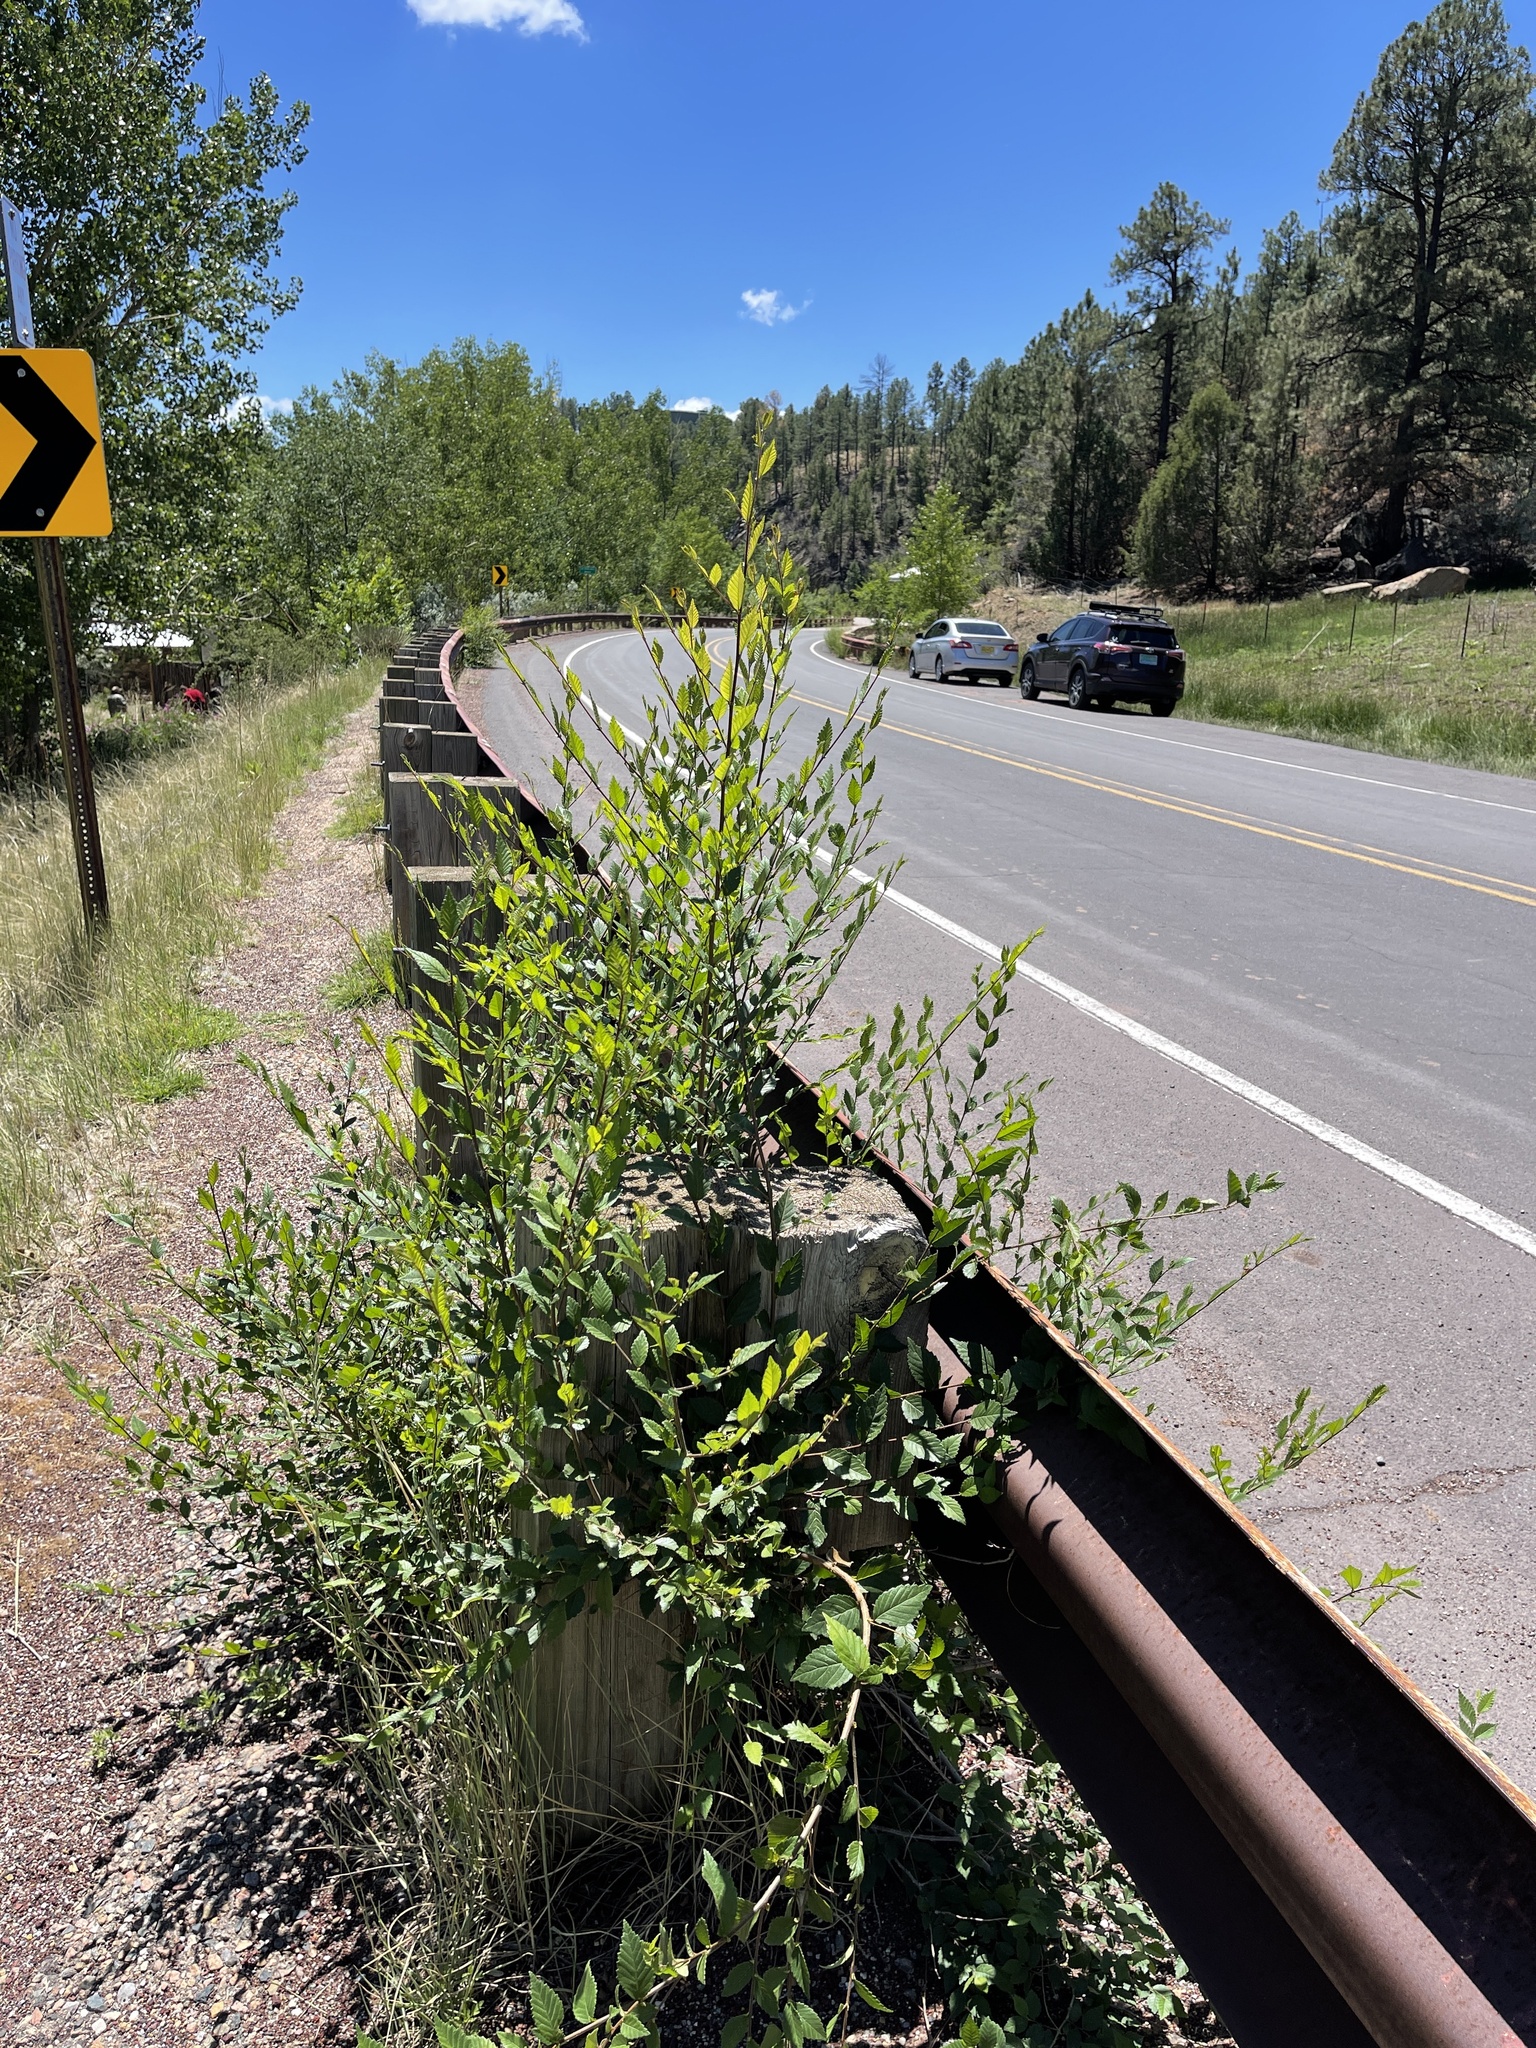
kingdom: Plantae
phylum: Tracheophyta
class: Magnoliopsida
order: Rosales
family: Ulmaceae
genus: Ulmus
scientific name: Ulmus pumila
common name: Siberian elm
